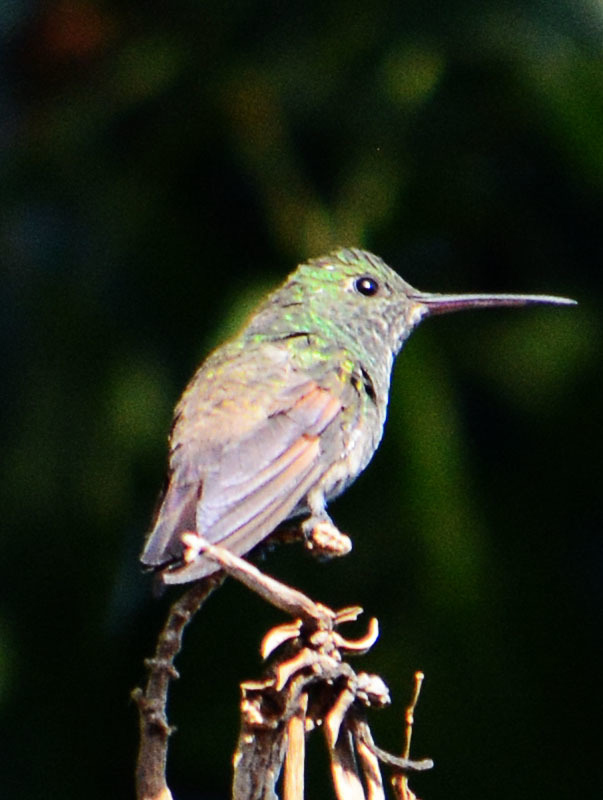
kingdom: Animalia
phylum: Chordata
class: Aves
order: Apodiformes
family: Trochilidae
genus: Saucerottia
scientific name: Saucerottia beryllina
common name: Berylline hummingbird
